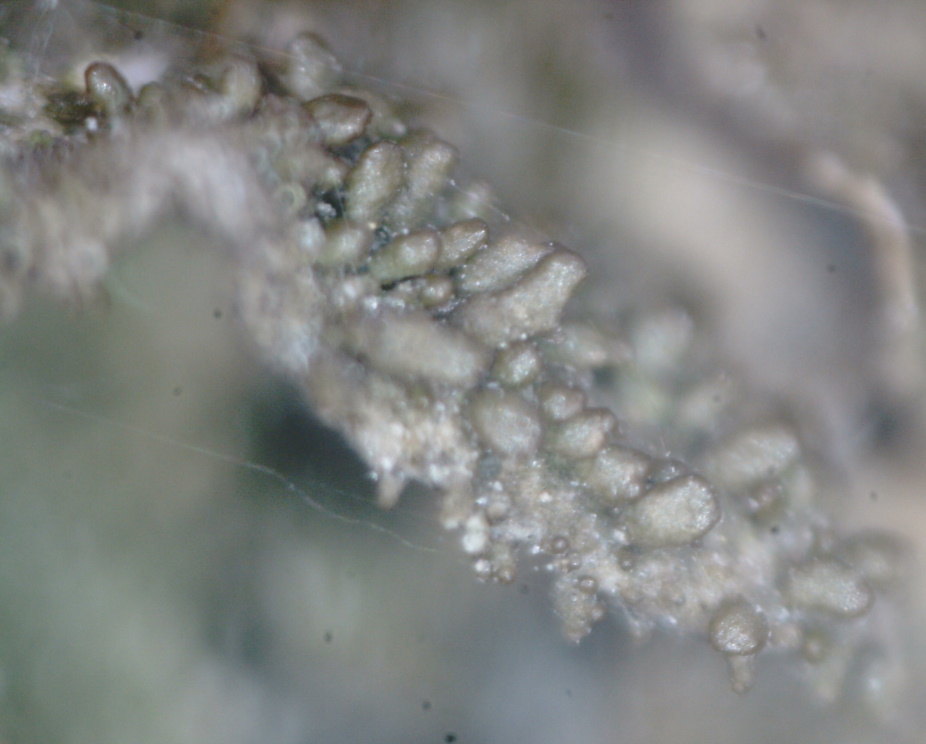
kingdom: Fungi
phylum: Ascomycota
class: Lecanoromycetes
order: Lecanorales
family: Parmeliaceae
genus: Melanohalea
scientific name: Melanohalea exasperatula
